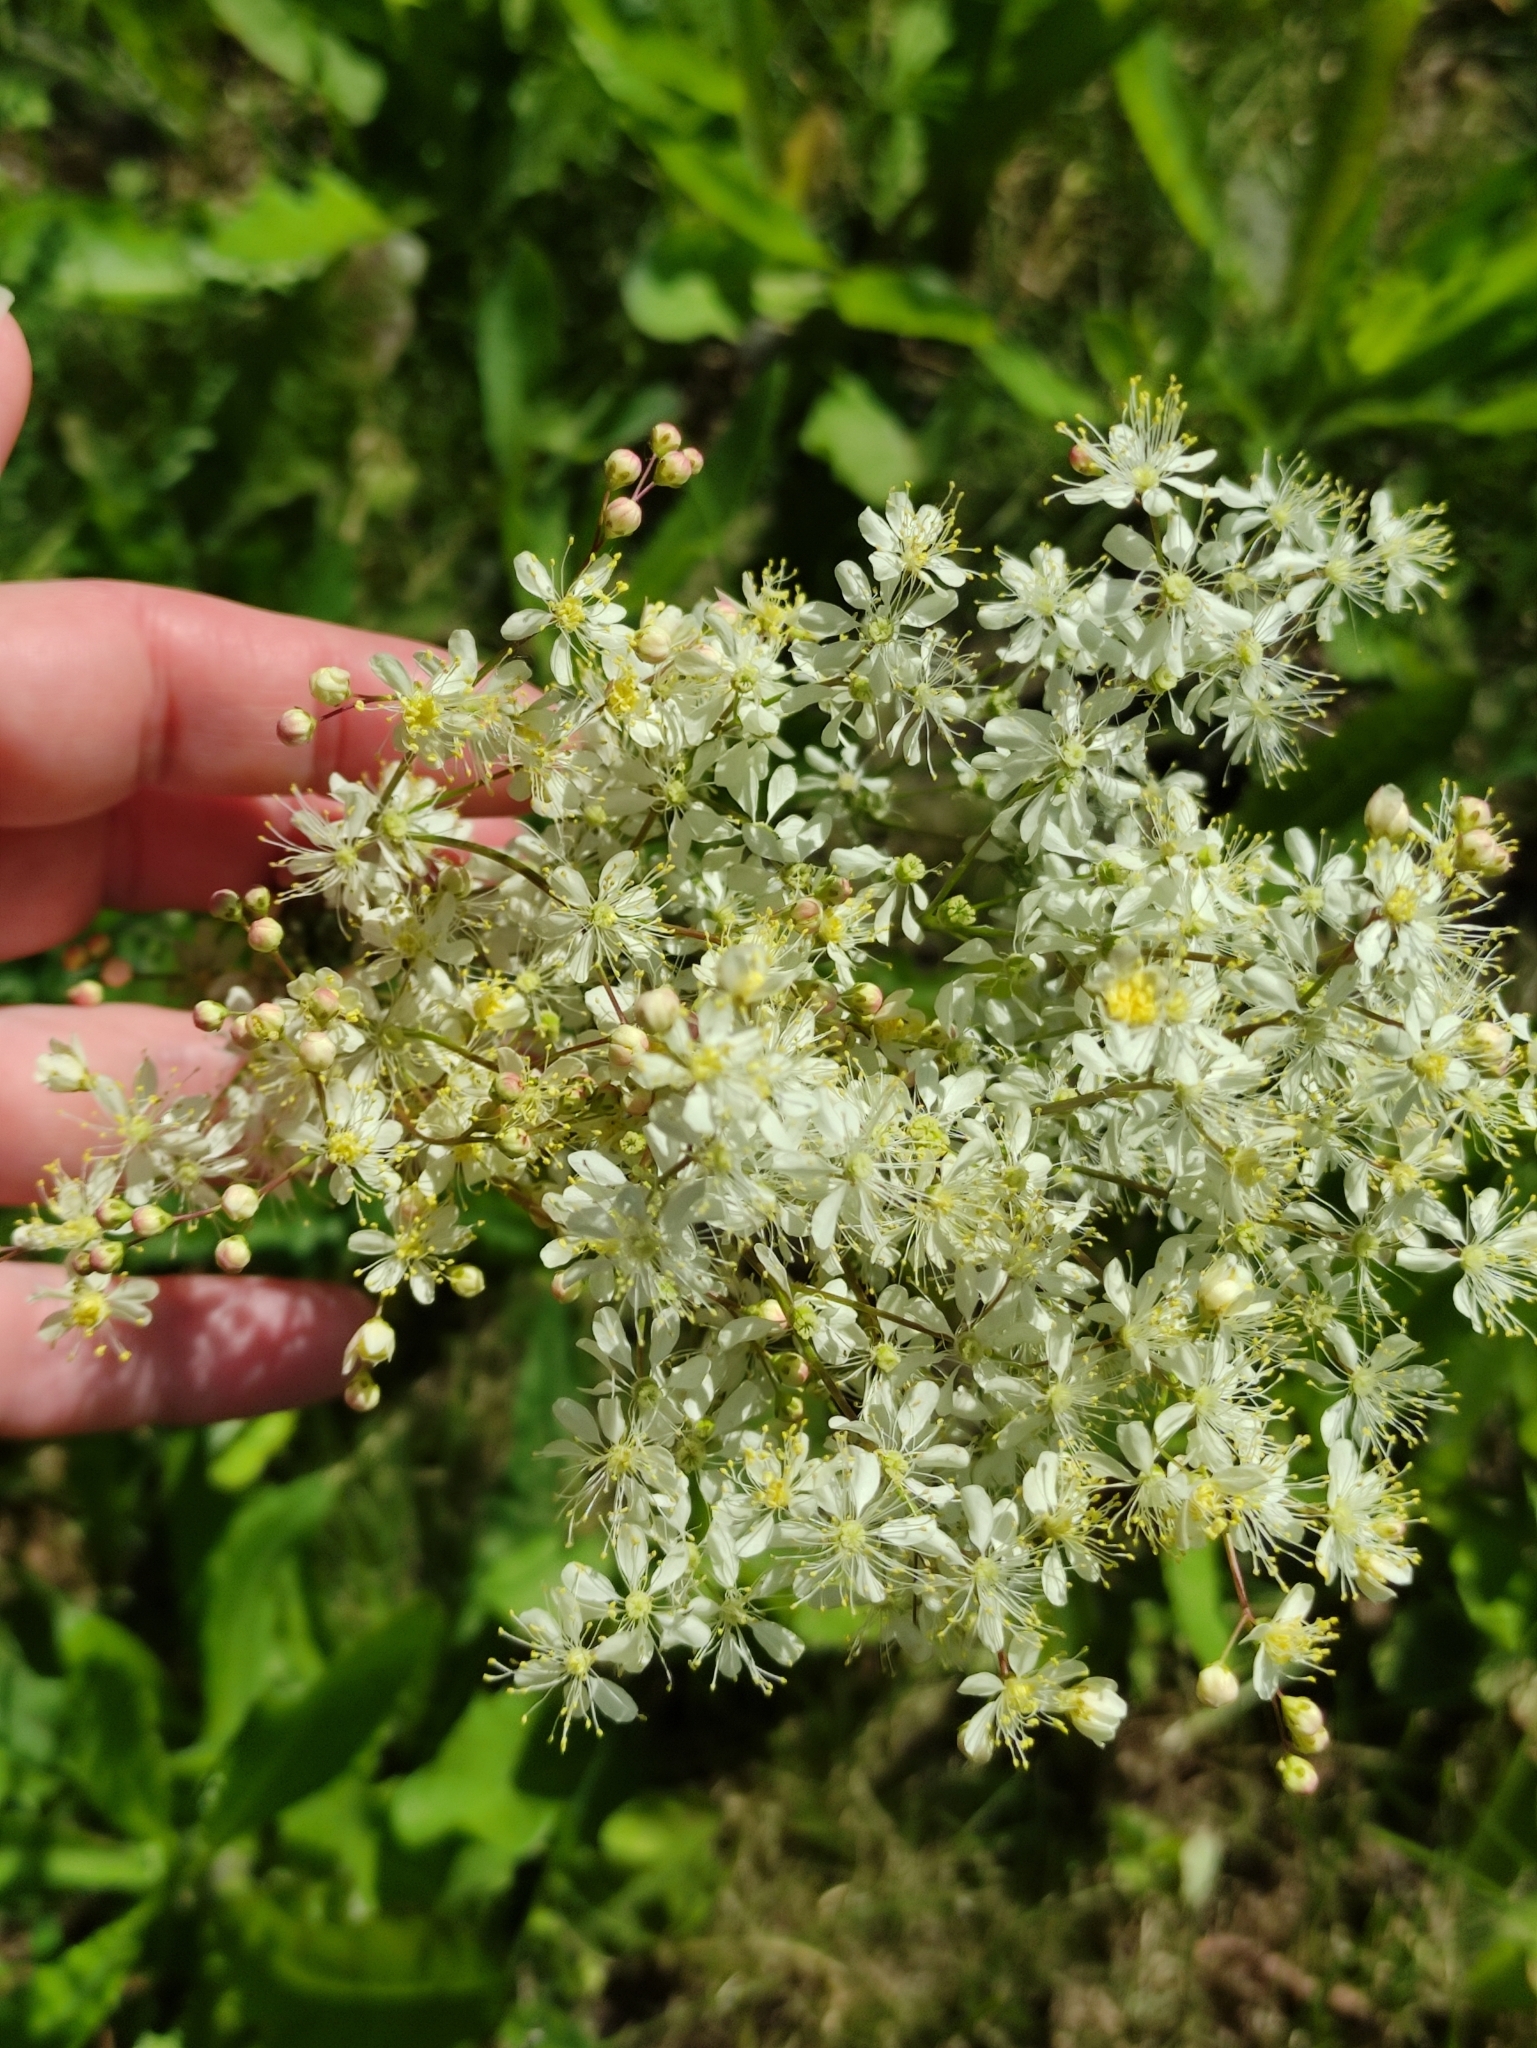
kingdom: Plantae
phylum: Tracheophyta
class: Magnoliopsida
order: Rosales
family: Rosaceae
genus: Filipendula
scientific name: Filipendula vulgaris
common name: Dropwort
